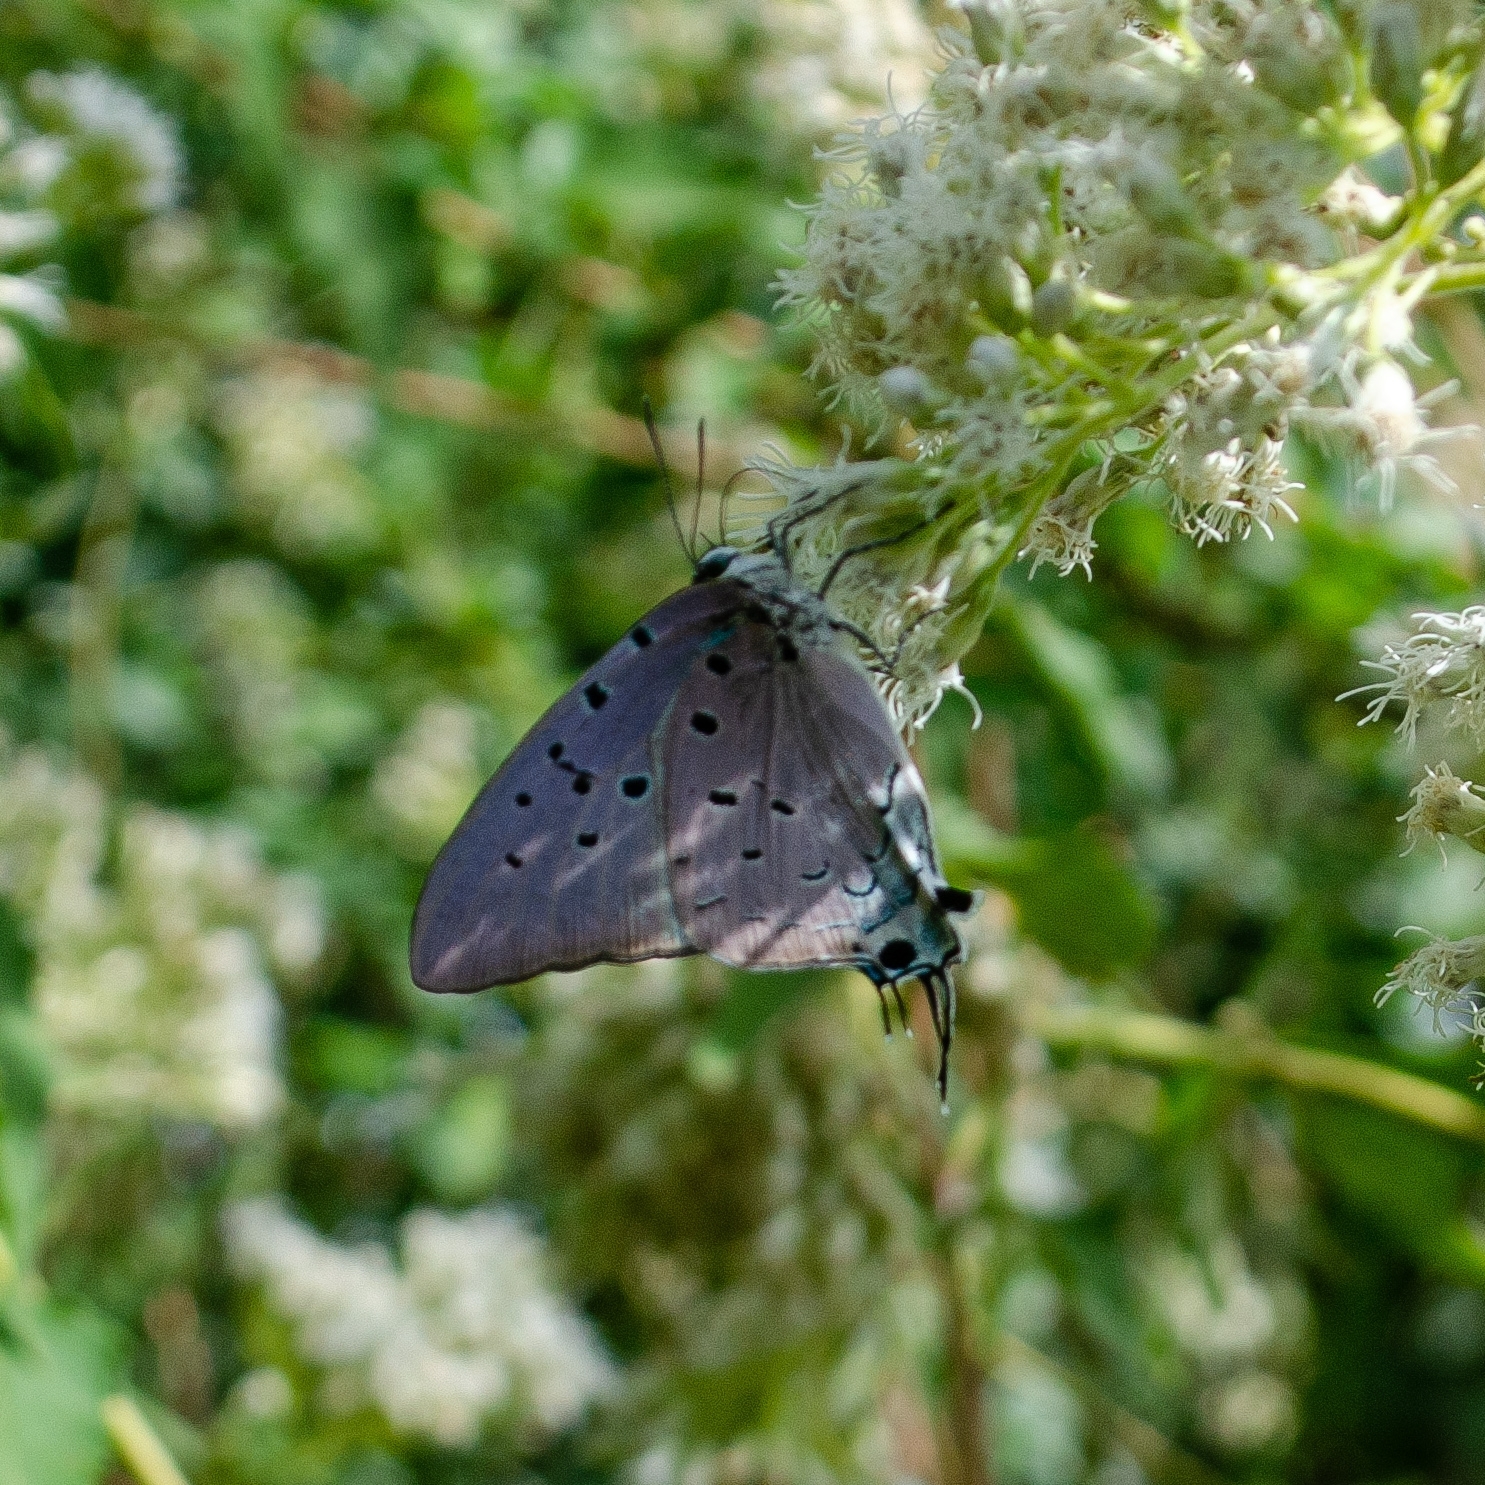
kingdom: Animalia
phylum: Arthropoda
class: Insecta
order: Lepidoptera
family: Lycaenidae
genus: Pseudolycaena
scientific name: Pseudolycaena marsyas
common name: Marsyas hairstreak
